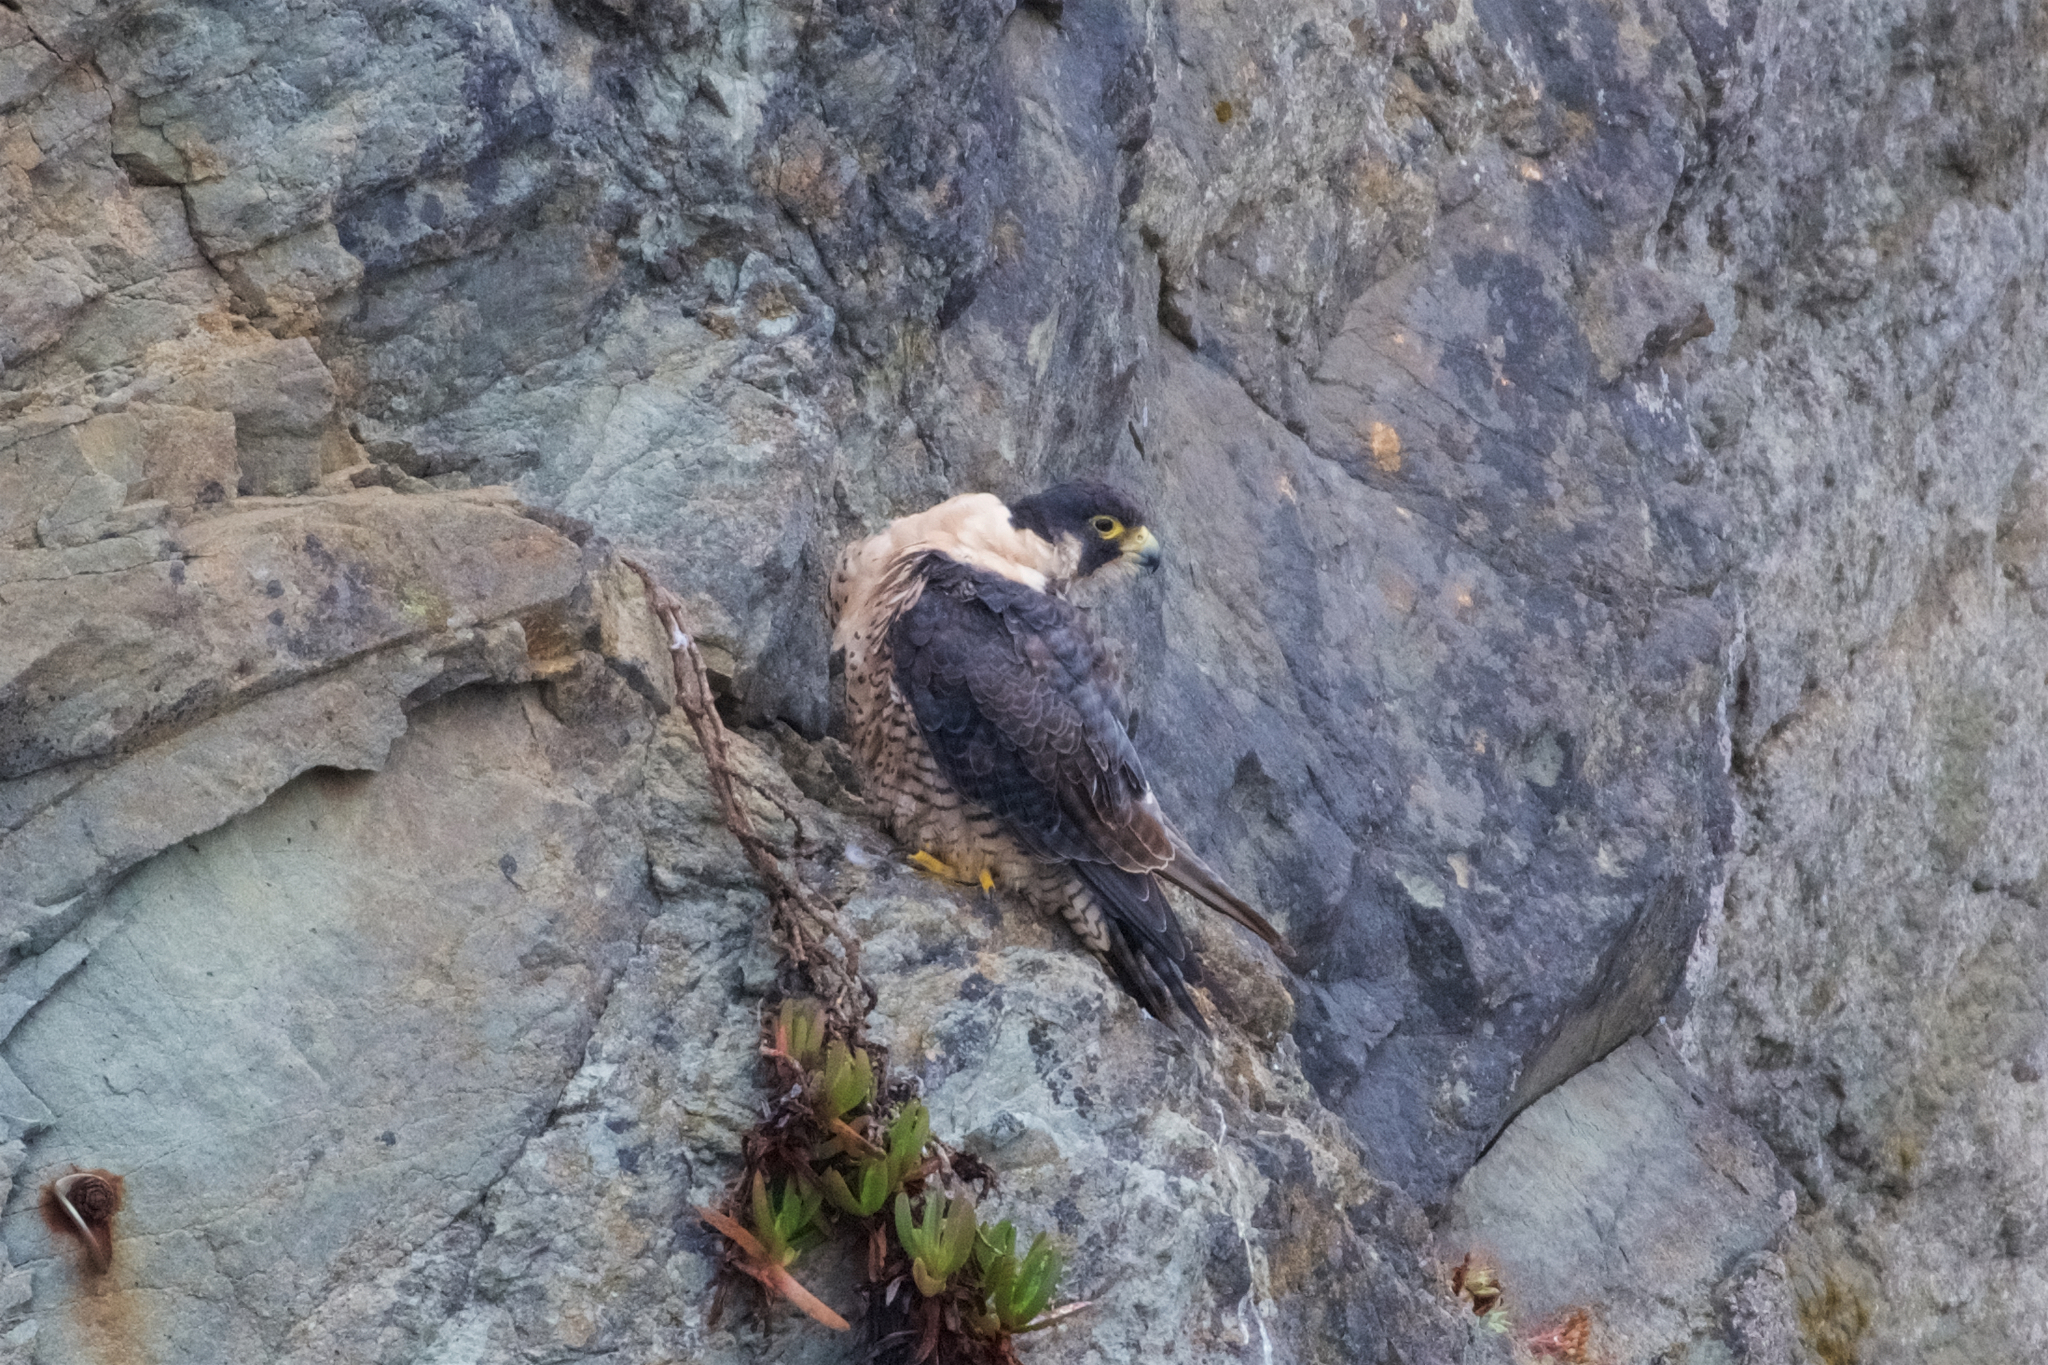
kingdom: Animalia
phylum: Chordata
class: Aves
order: Falconiformes
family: Falconidae
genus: Falco
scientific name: Falco peregrinus
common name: Peregrine falcon
